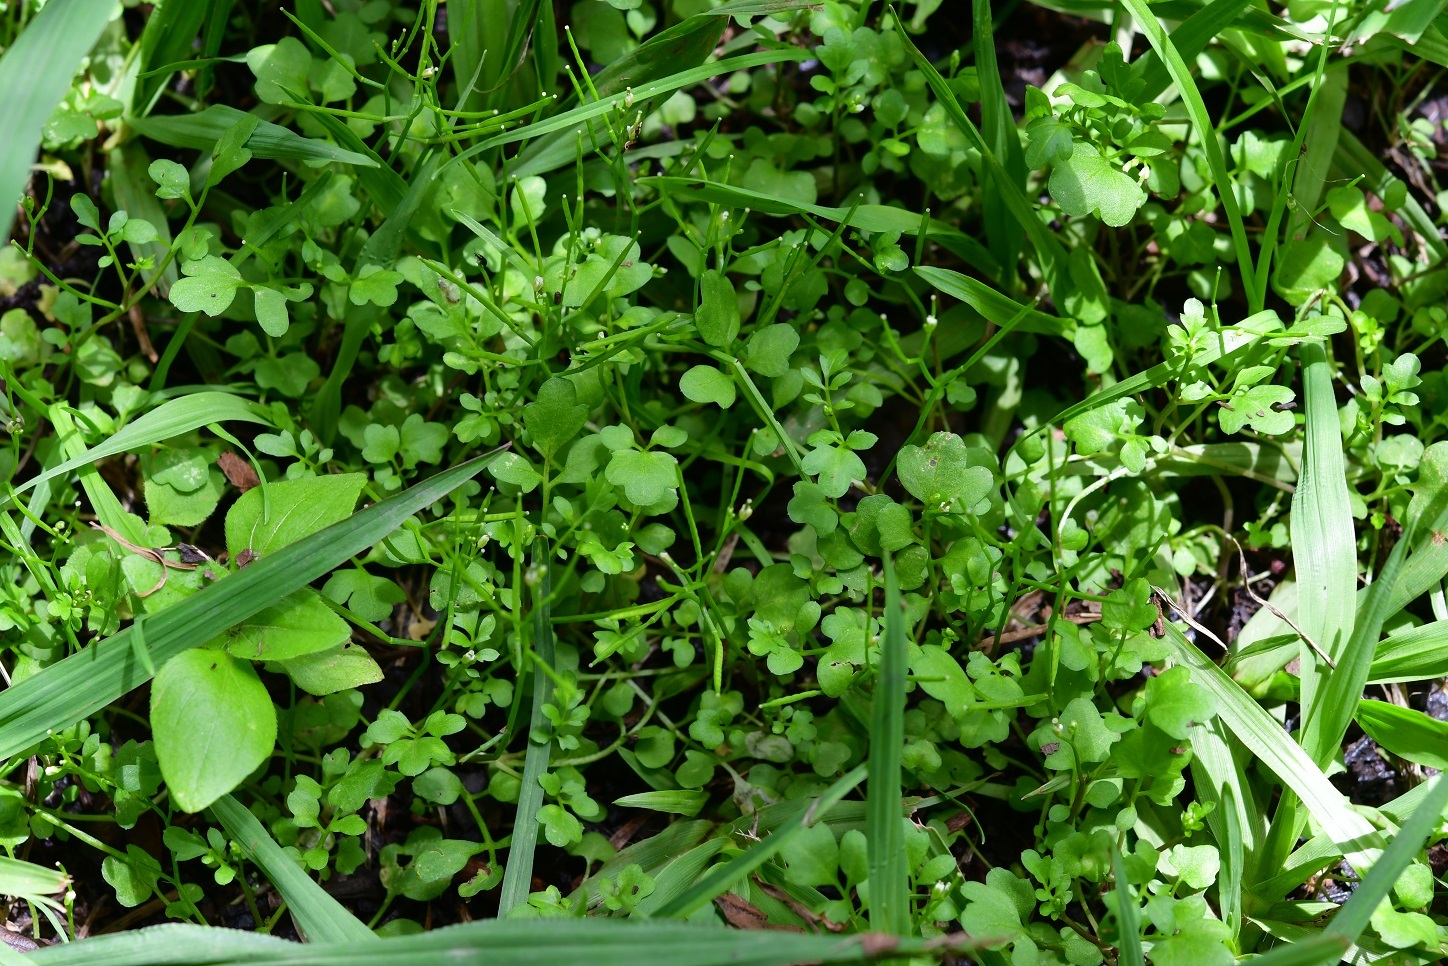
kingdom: Plantae
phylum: Tracheophyta
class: Magnoliopsida
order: Brassicales
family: Brassicaceae
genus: Cardamine
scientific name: Cardamine occulta
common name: Asian wavy bittercress
